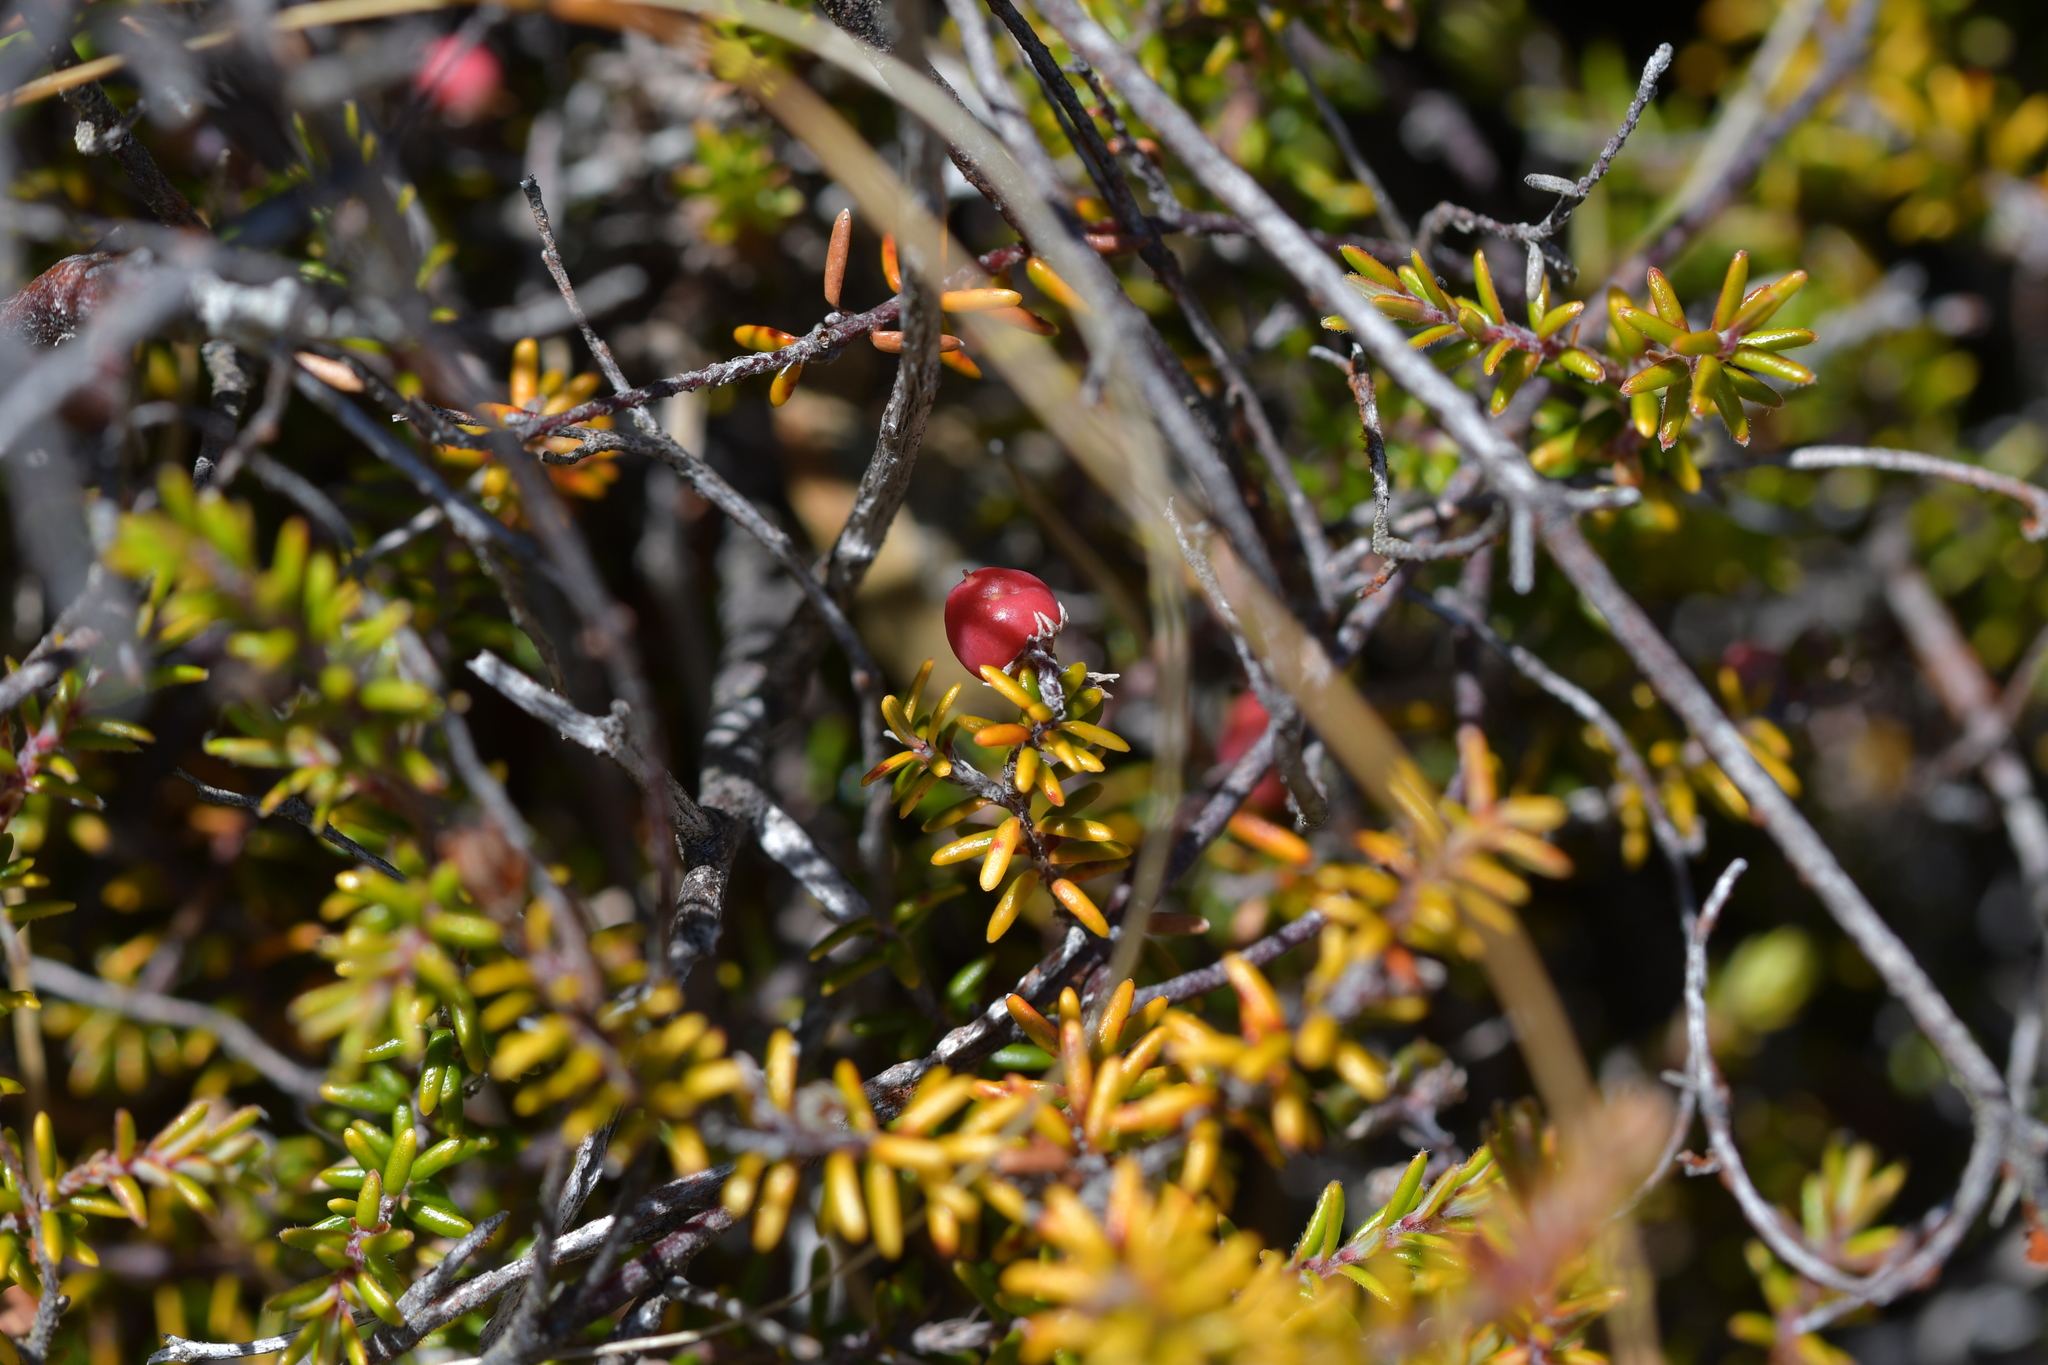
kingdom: Plantae
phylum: Tracheophyta
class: Magnoliopsida
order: Ericales
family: Ericaceae
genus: Androstoma
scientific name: Androstoma empetrifolia
